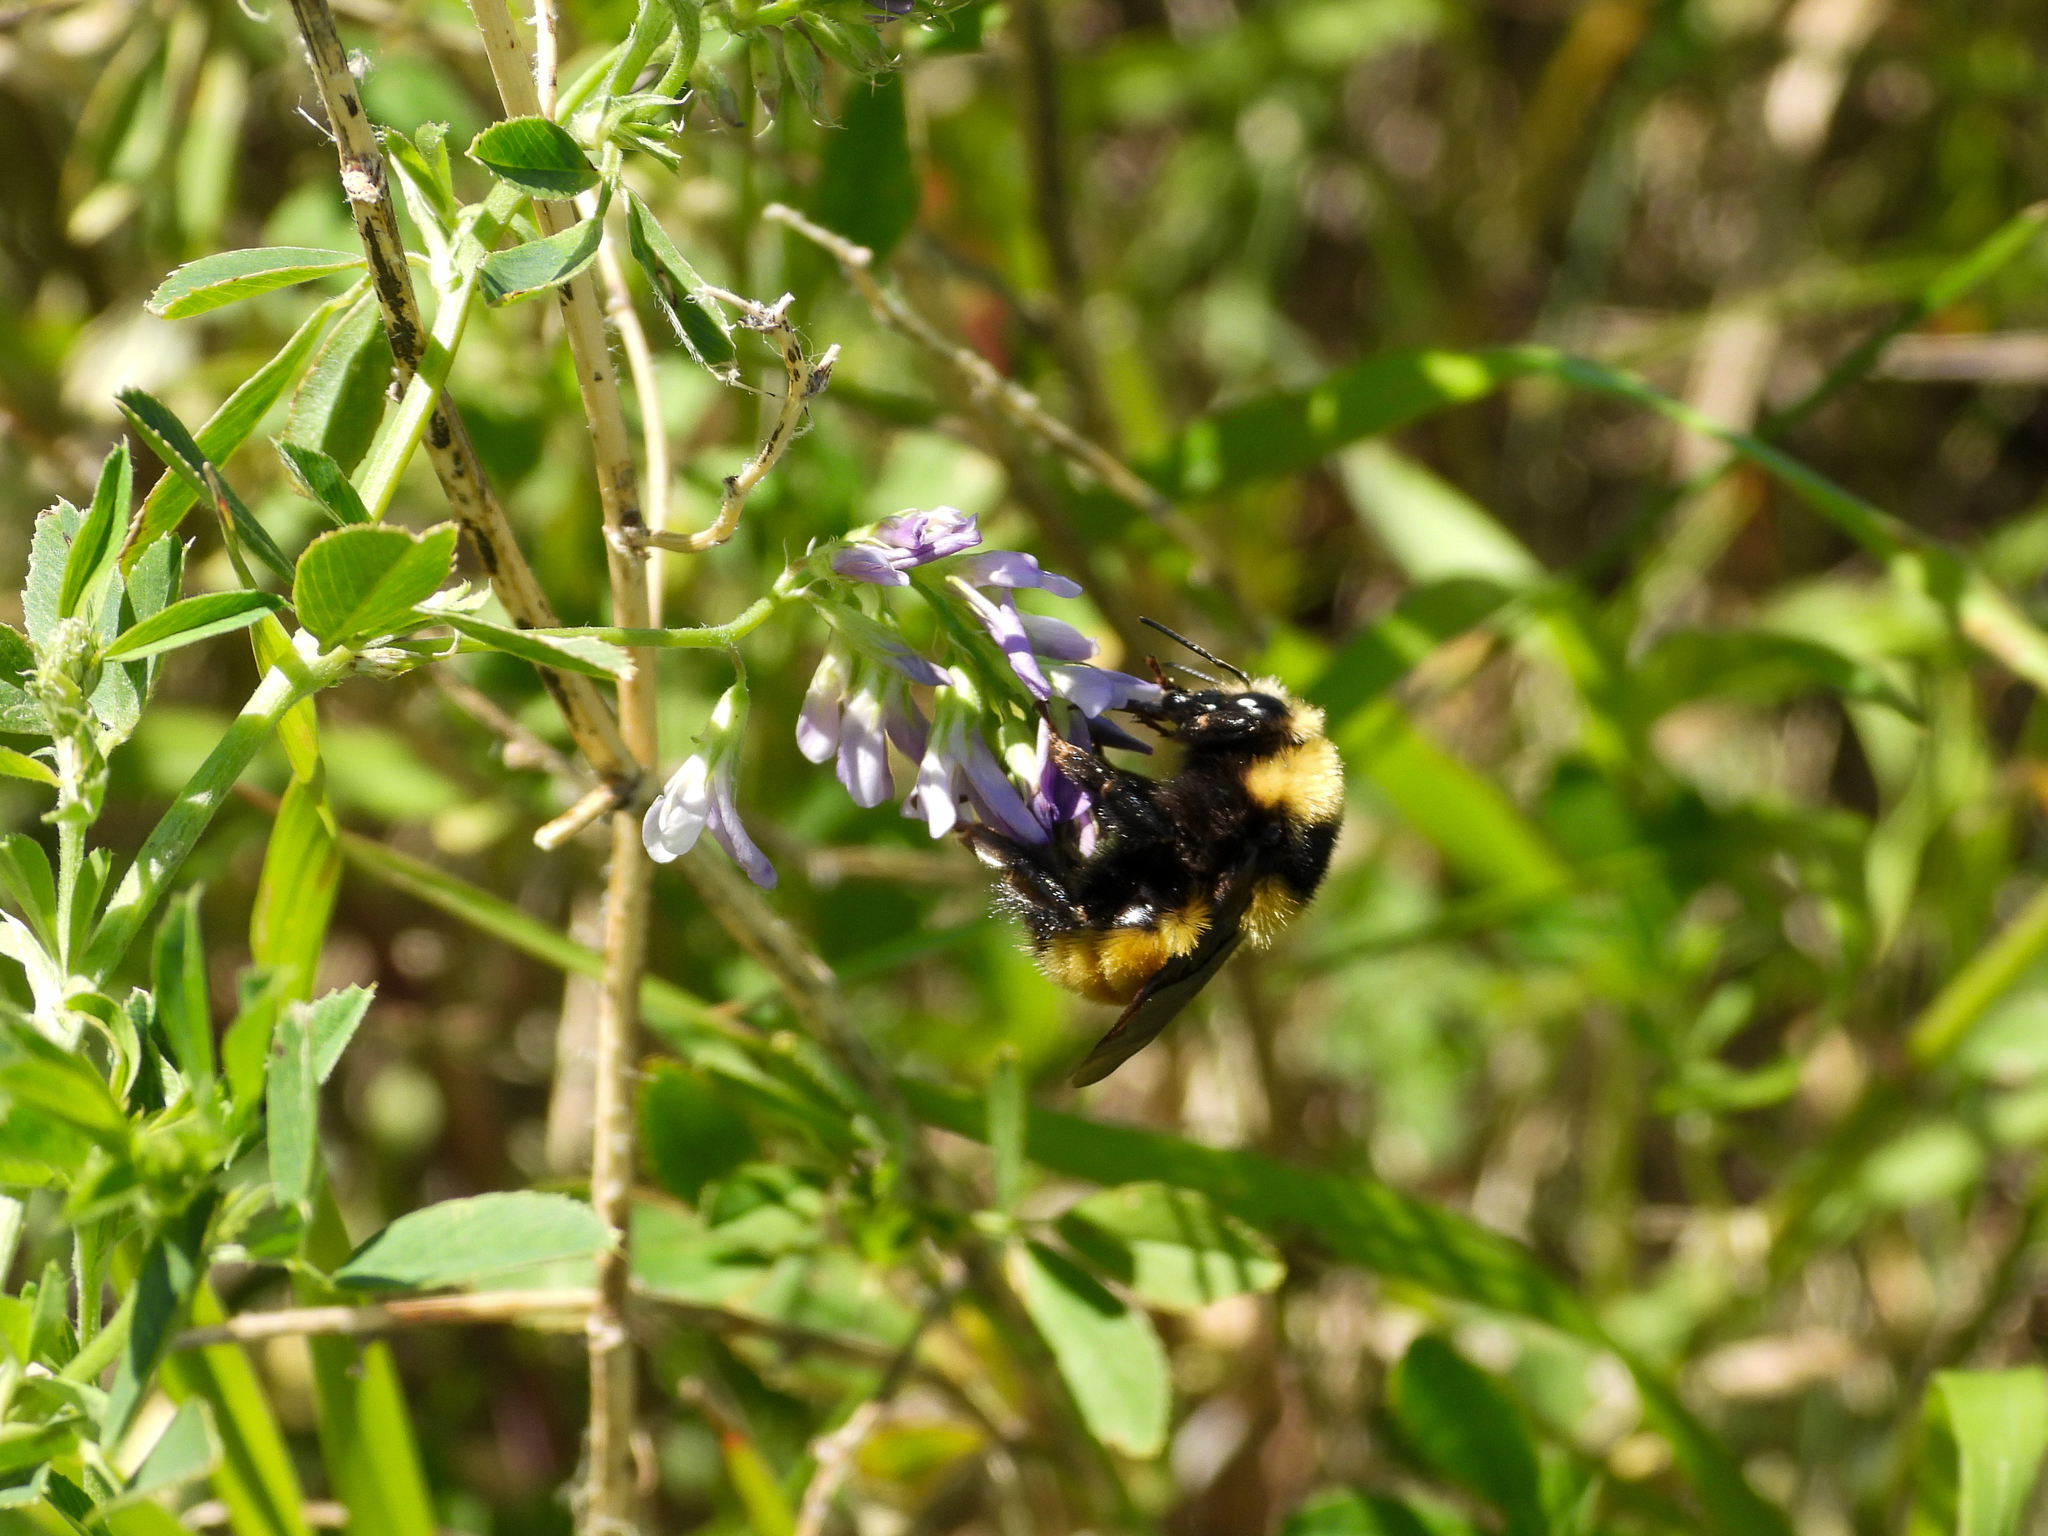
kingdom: Animalia
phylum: Arthropoda
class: Insecta
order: Hymenoptera
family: Apidae
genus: Bombus
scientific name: Bombus borealis
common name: Northern amber bumble bee
